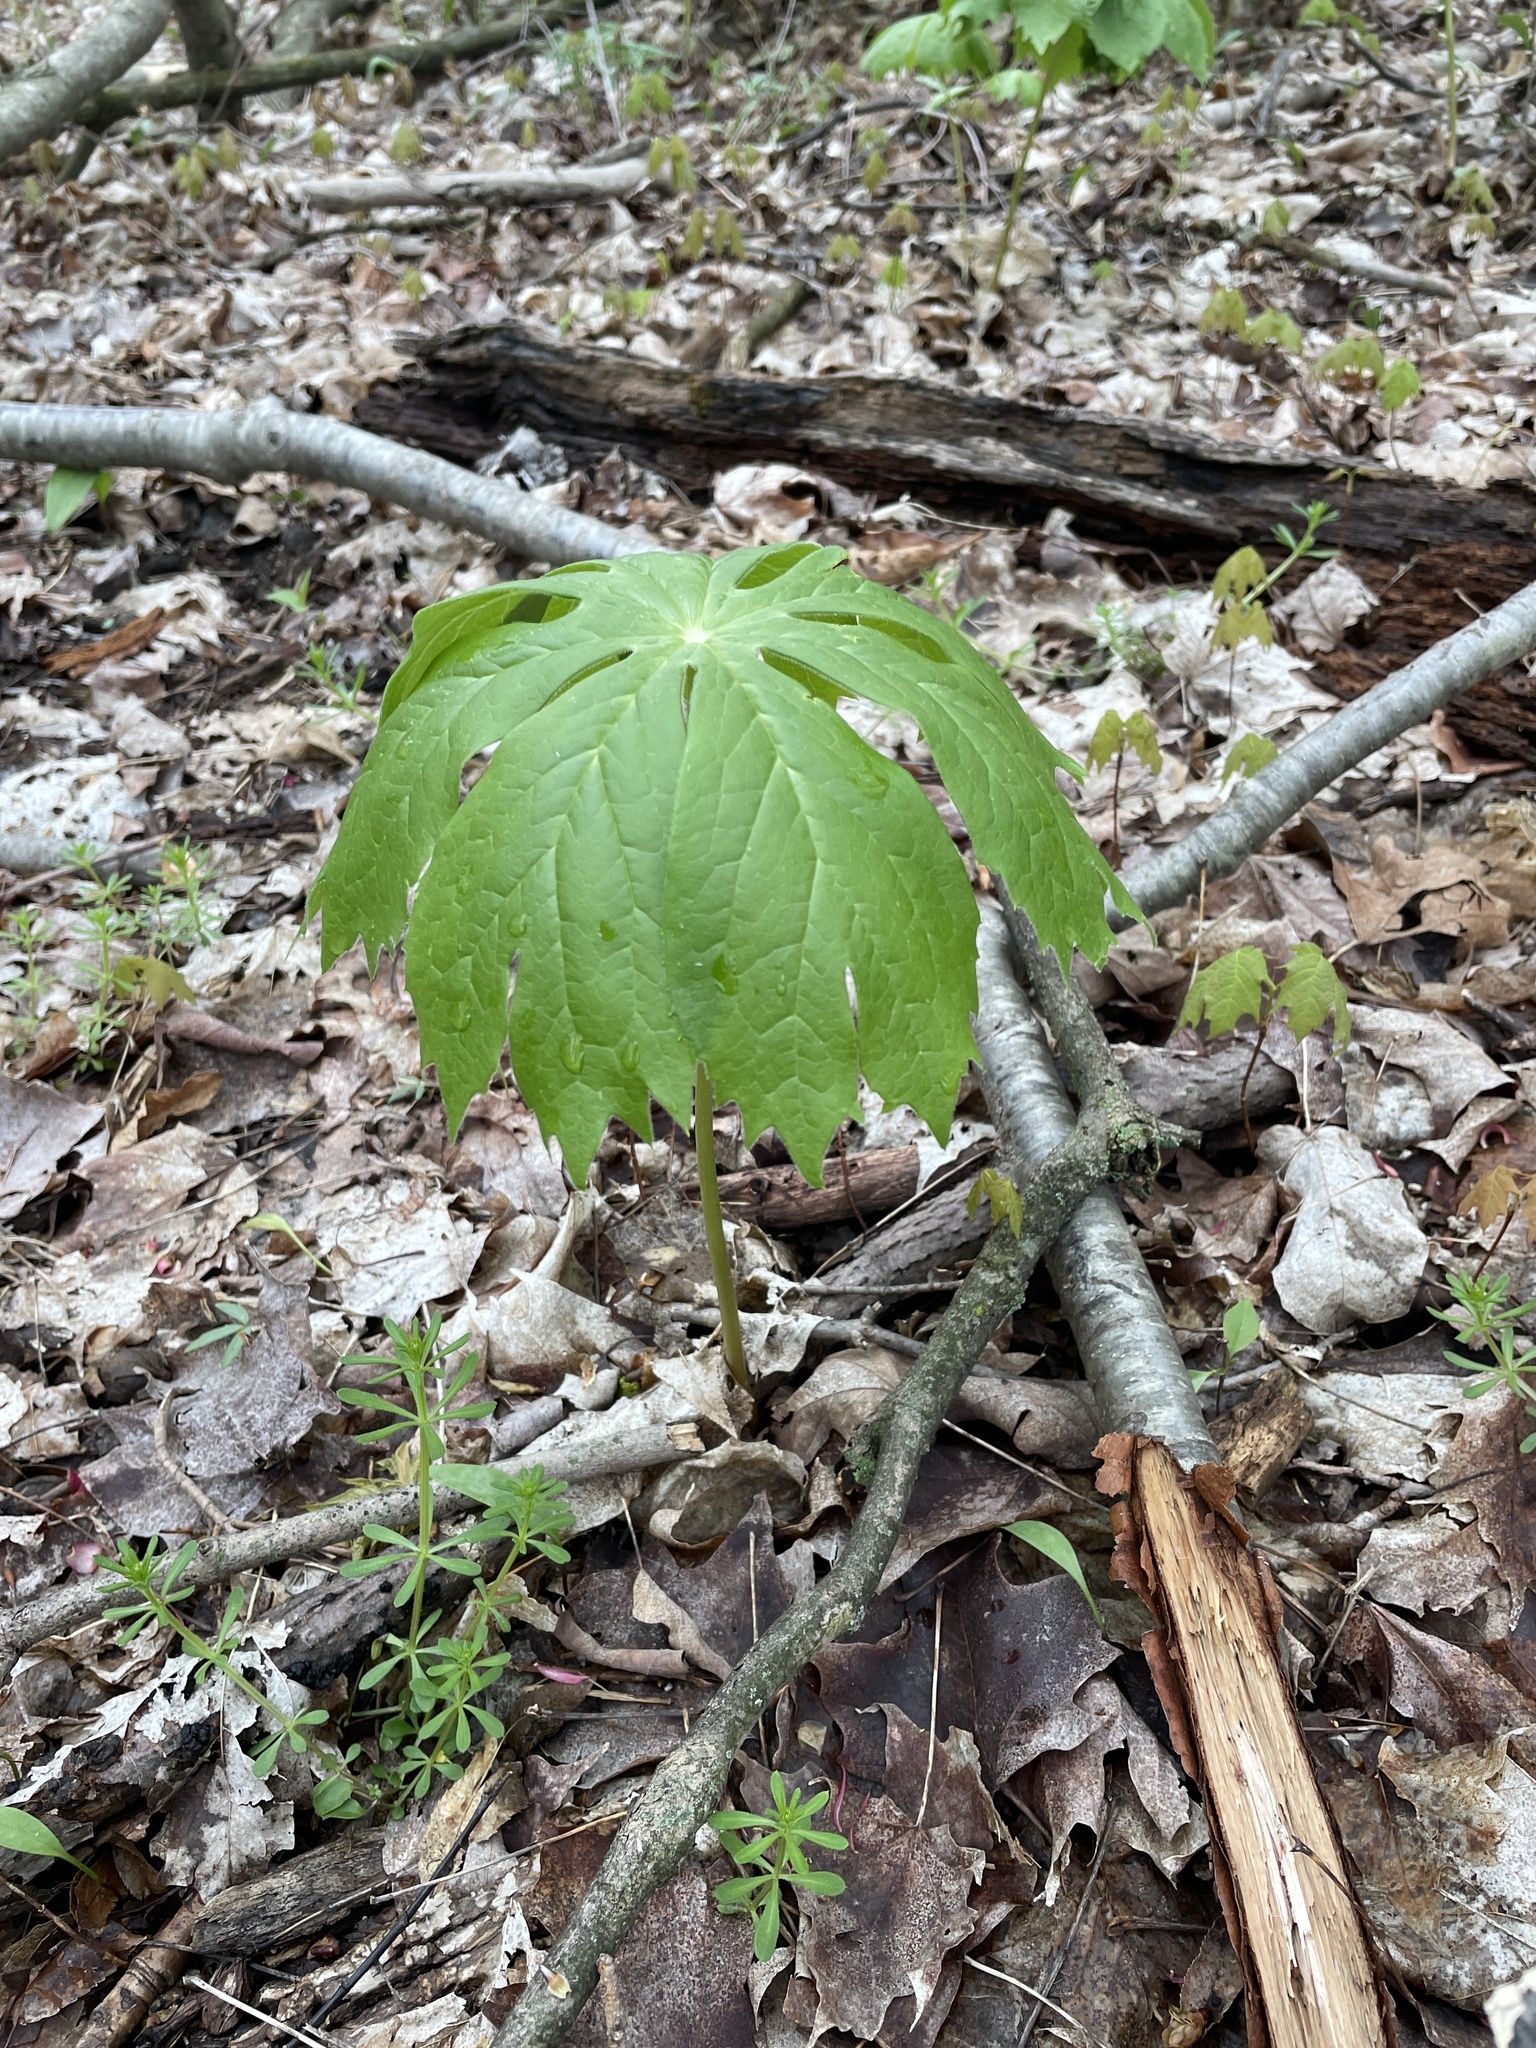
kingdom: Plantae
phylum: Tracheophyta
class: Magnoliopsida
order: Ranunculales
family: Berberidaceae
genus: Podophyllum
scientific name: Podophyllum peltatum
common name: Wild mandrake
